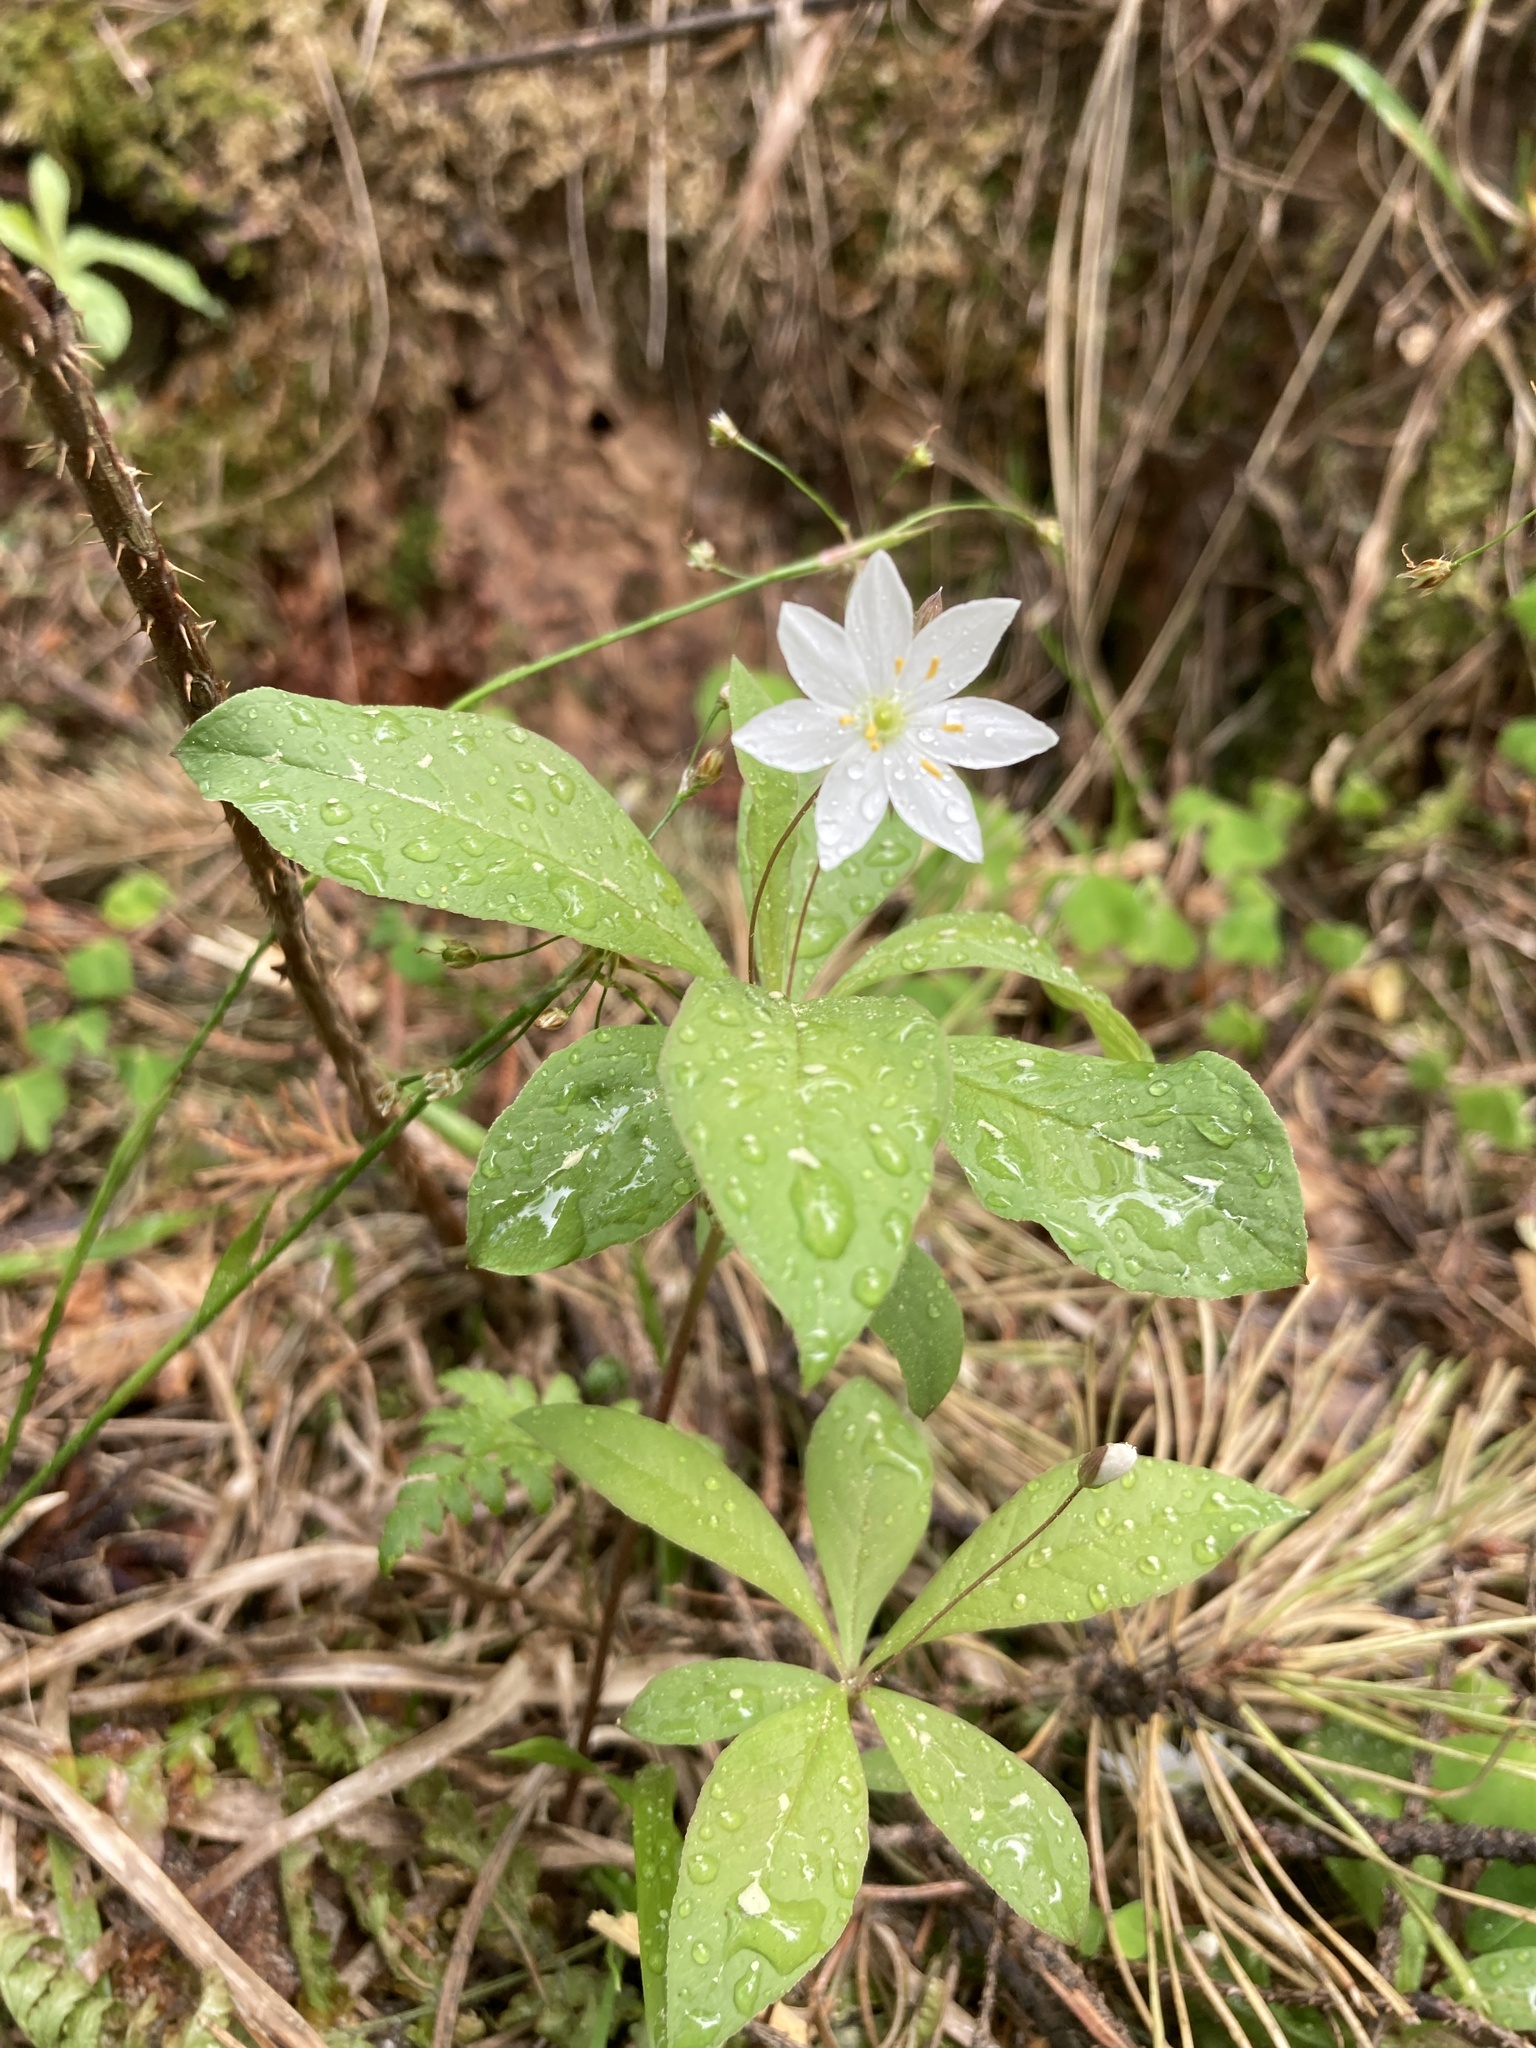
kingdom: Plantae
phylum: Tracheophyta
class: Magnoliopsida
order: Ericales
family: Primulaceae
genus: Lysimachia
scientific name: Lysimachia europaea
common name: Arctic starflower
